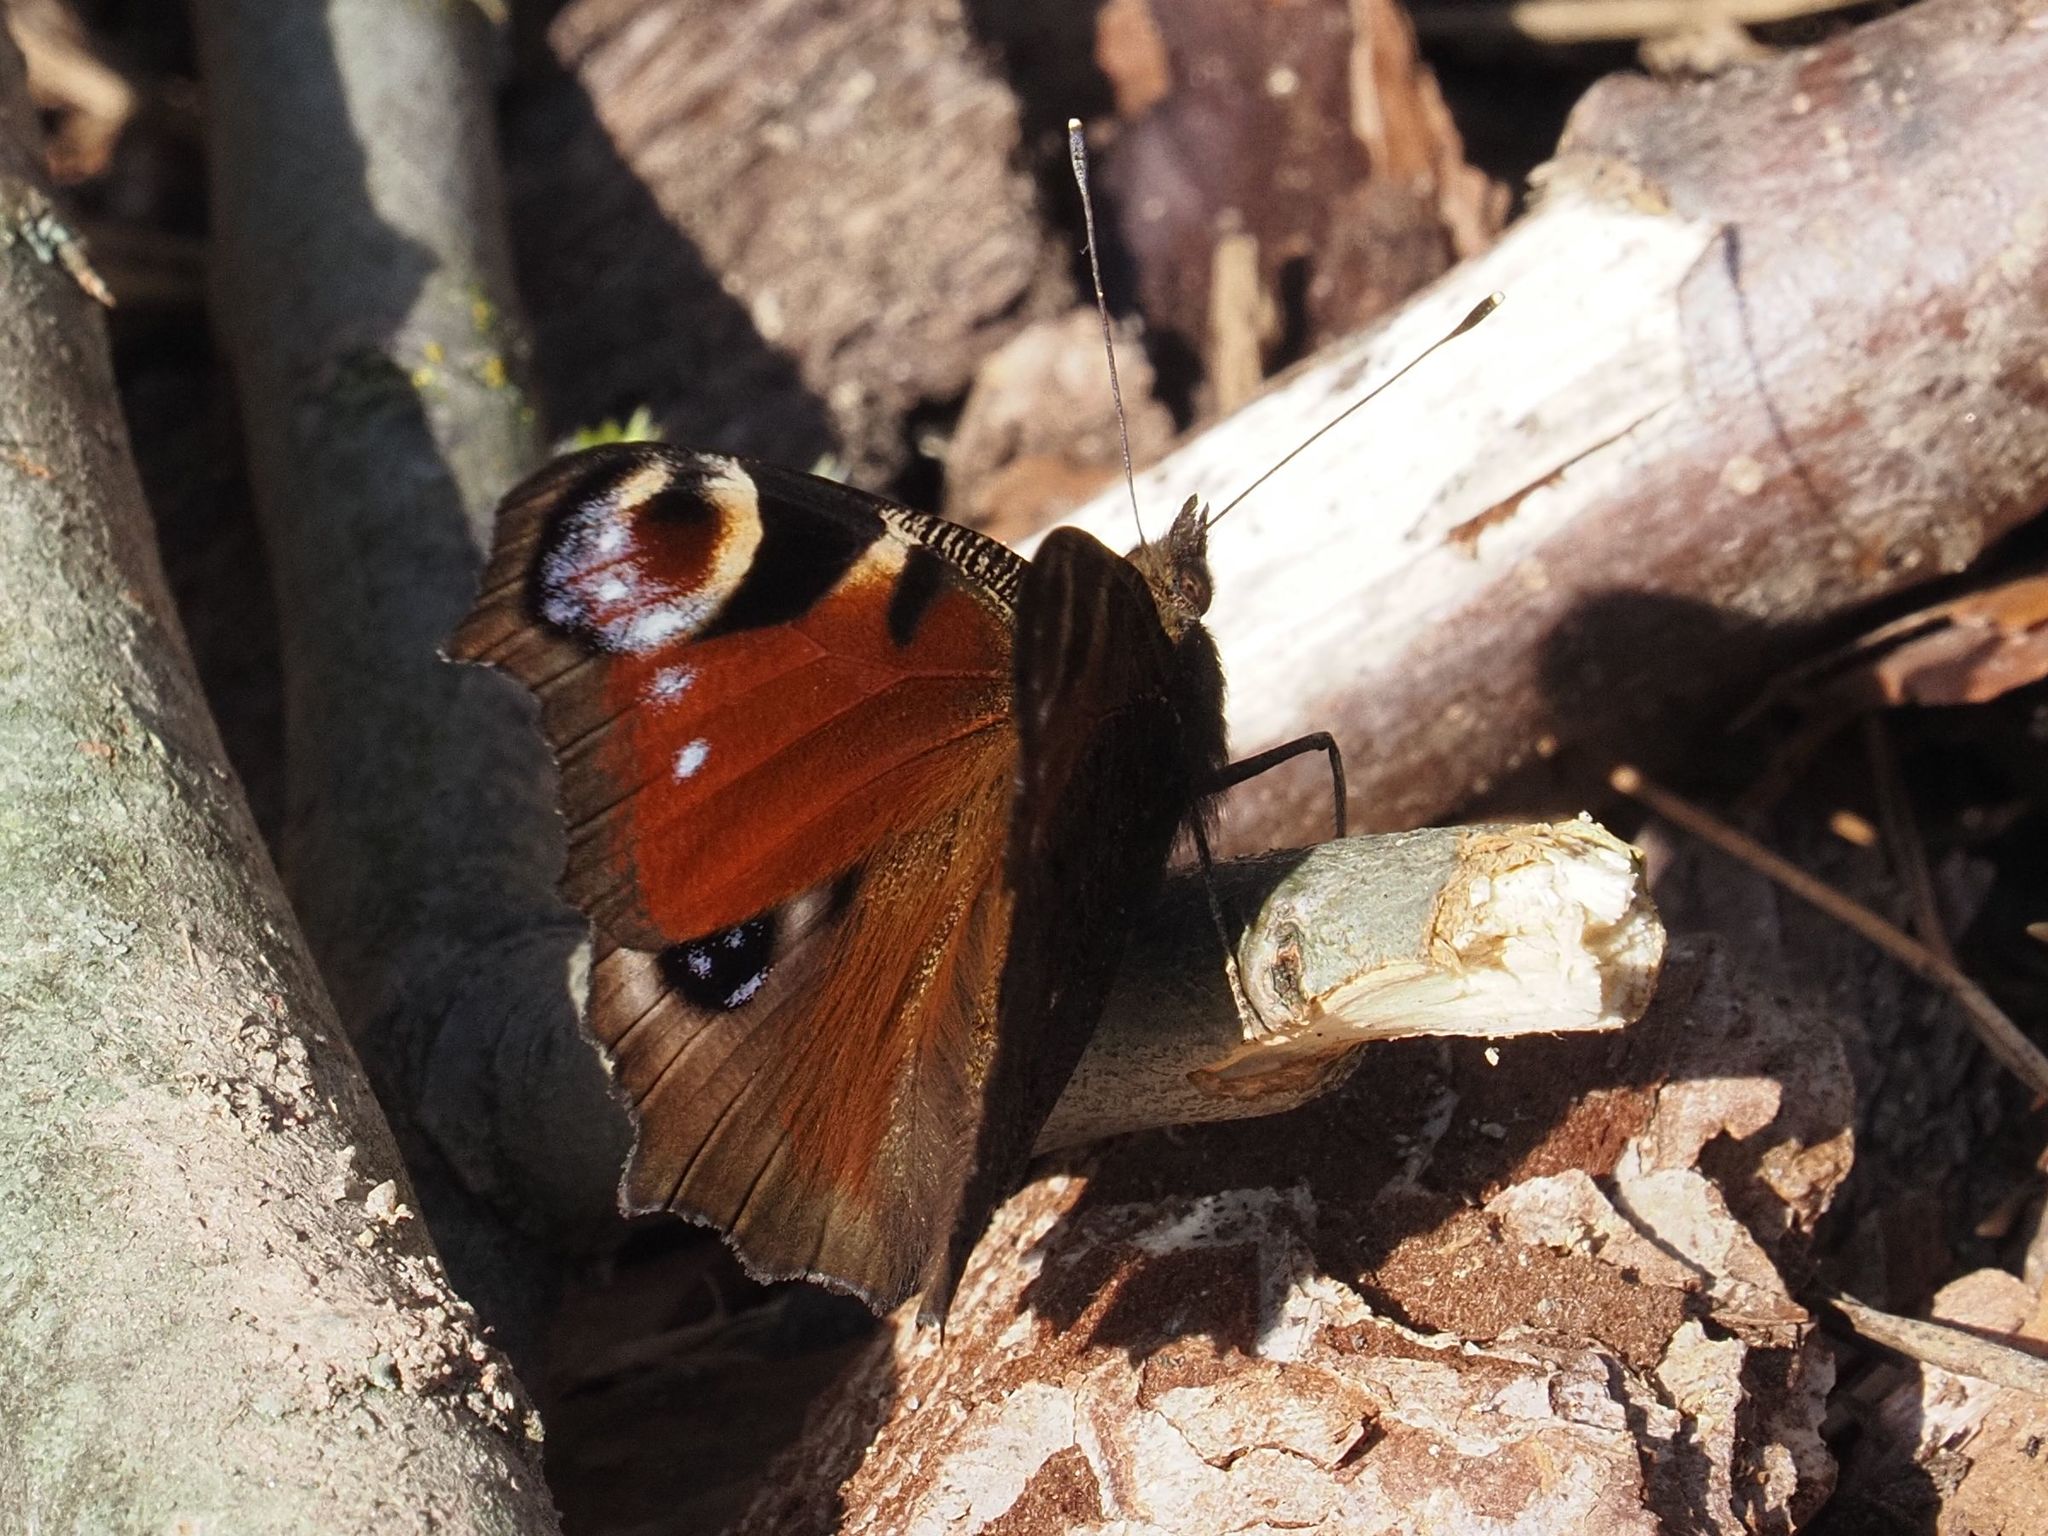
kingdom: Animalia
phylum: Arthropoda
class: Insecta
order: Lepidoptera
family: Nymphalidae
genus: Aglais
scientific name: Aglais io
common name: Peacock
